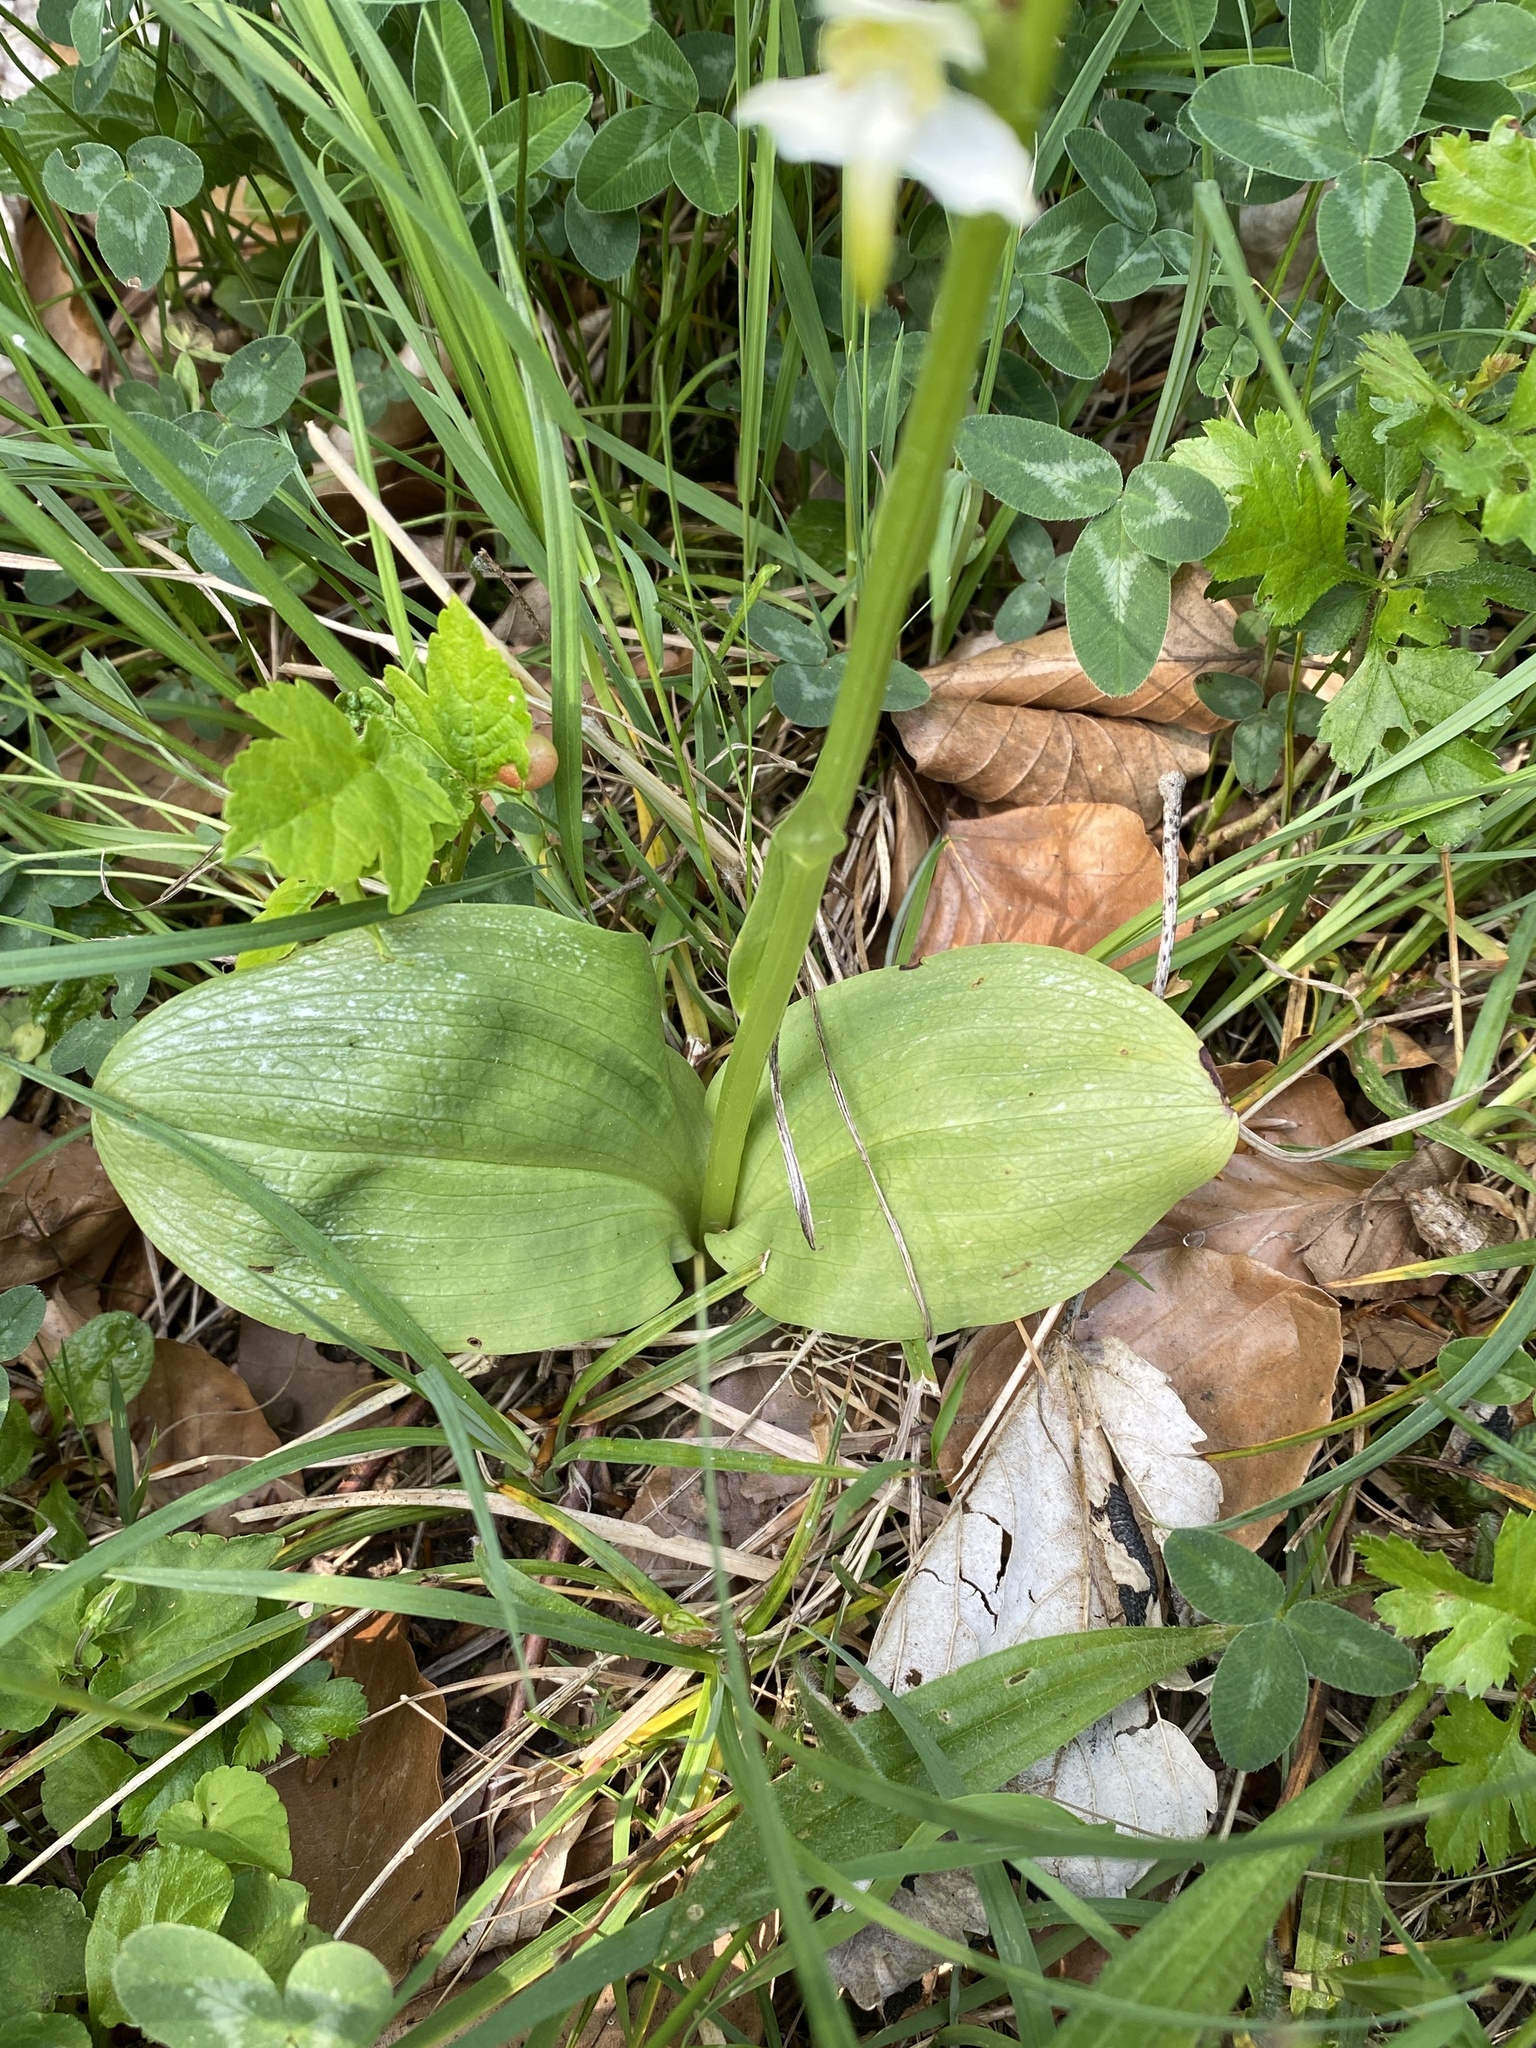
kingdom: Plantae
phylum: Tracheophyta
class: Liliopsida
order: Asparagales
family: Orchidaceae
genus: Platanthera
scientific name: Platanthera chlorantha
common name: Greater butterfly-orchid
